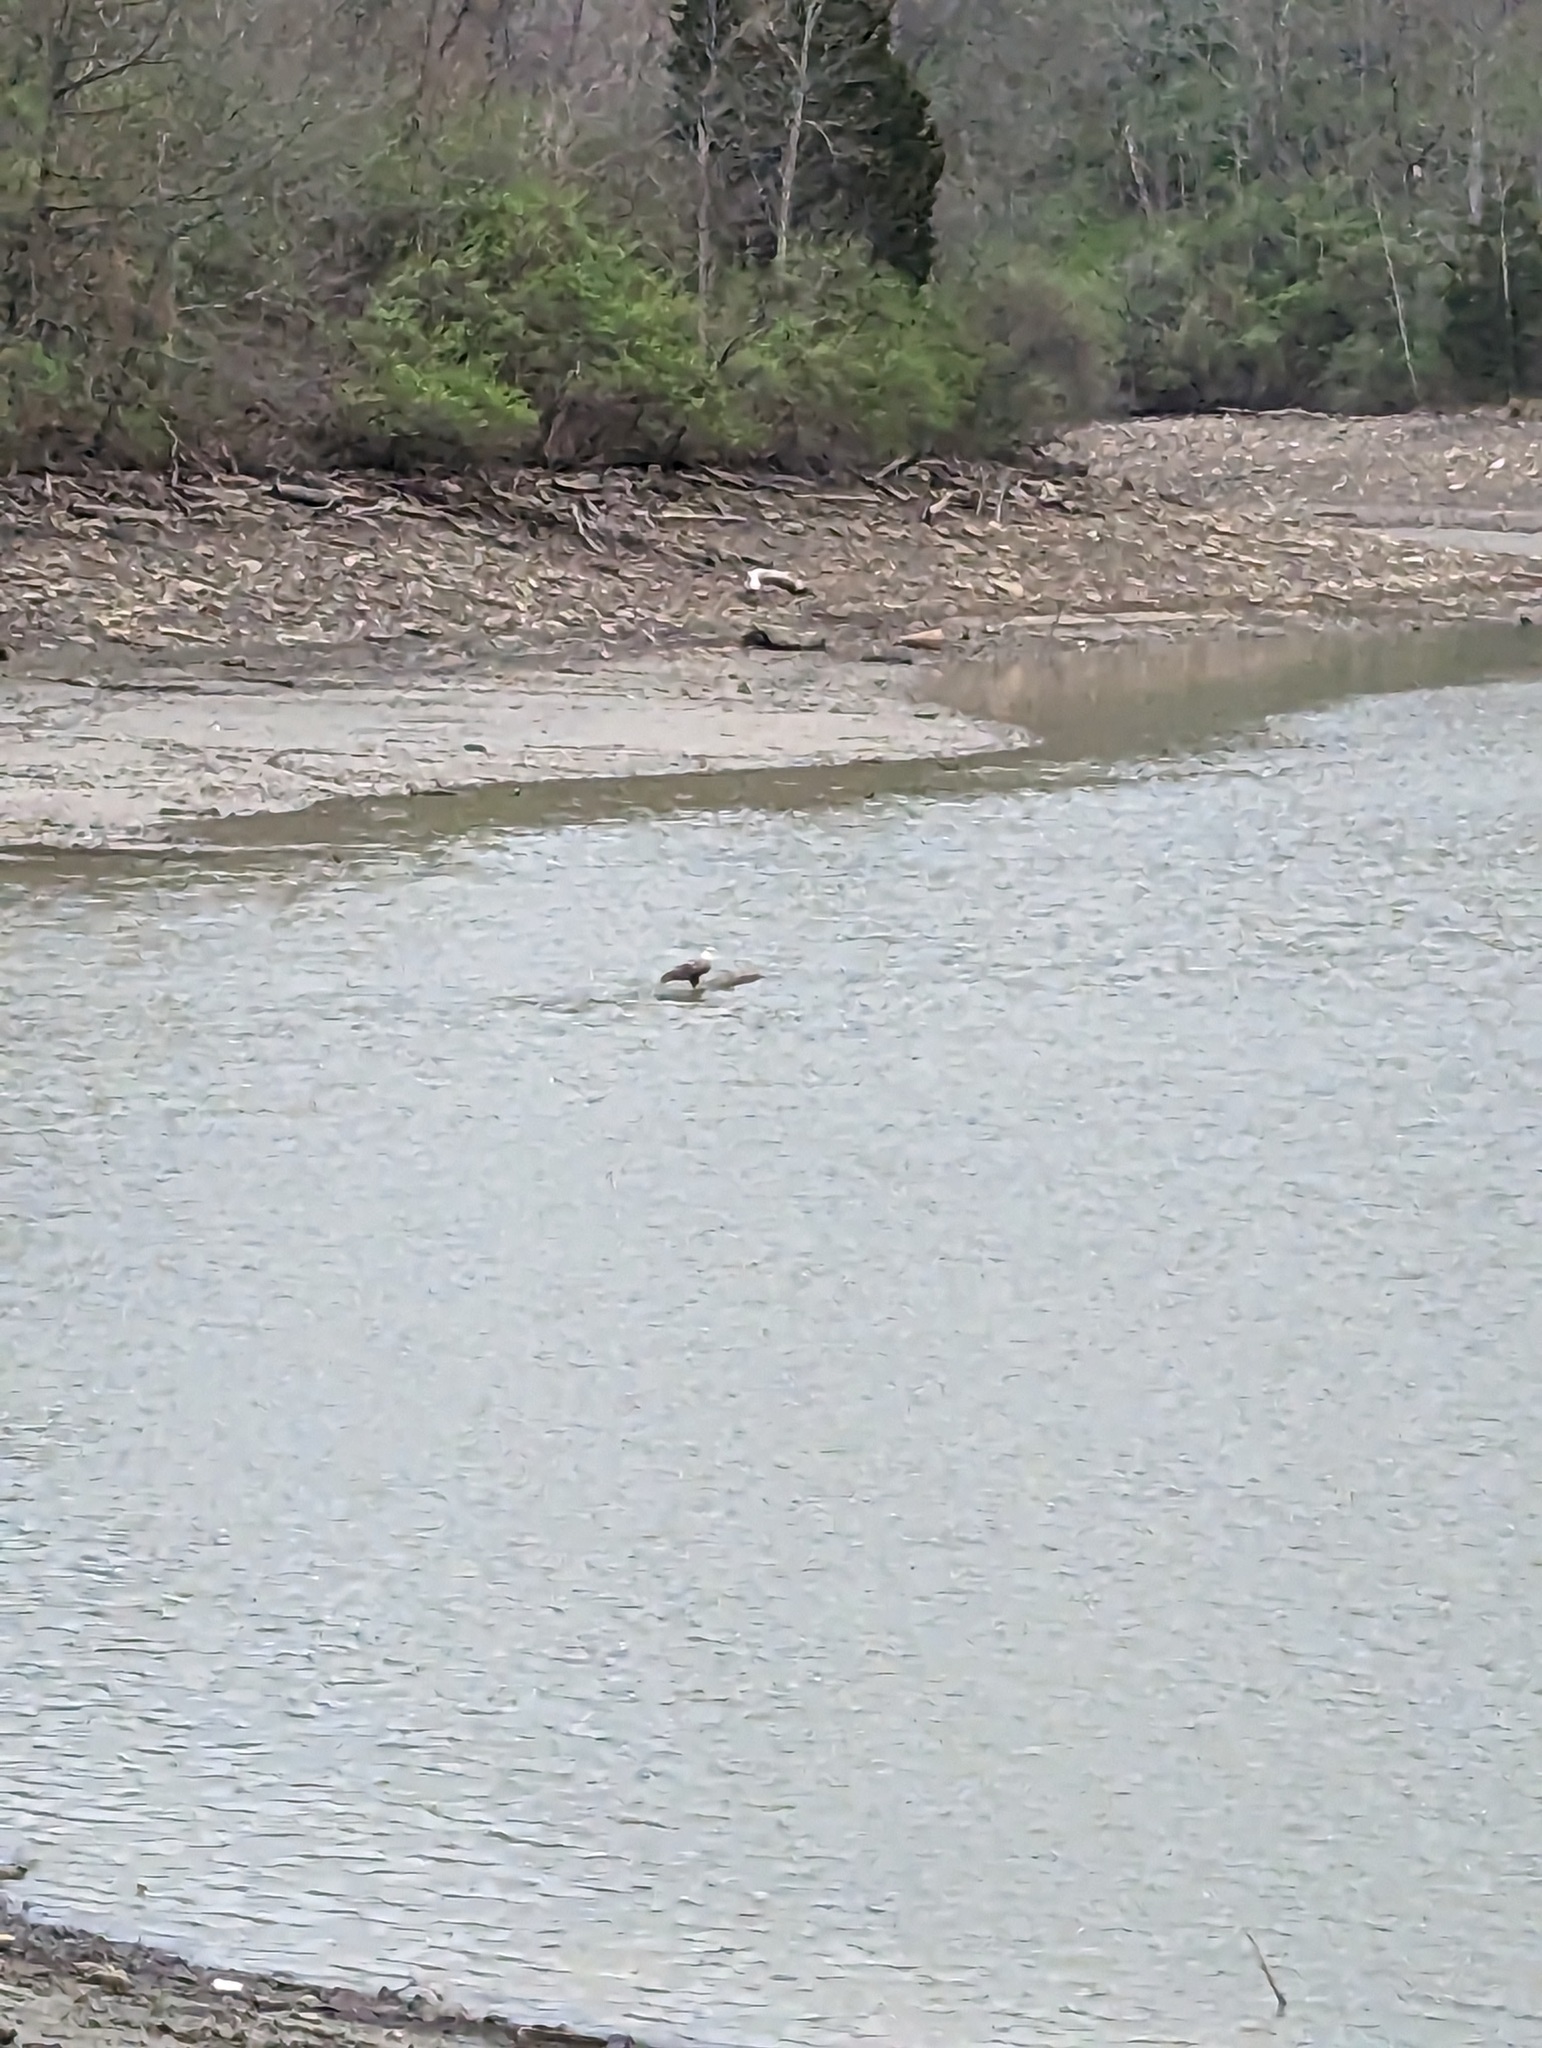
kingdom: Animalia
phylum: Chordata
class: Aves
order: Accipitriformes
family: Accipitridae
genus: Haliaeetus
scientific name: Haliaeetus leucocephalus
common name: Bald eagle
